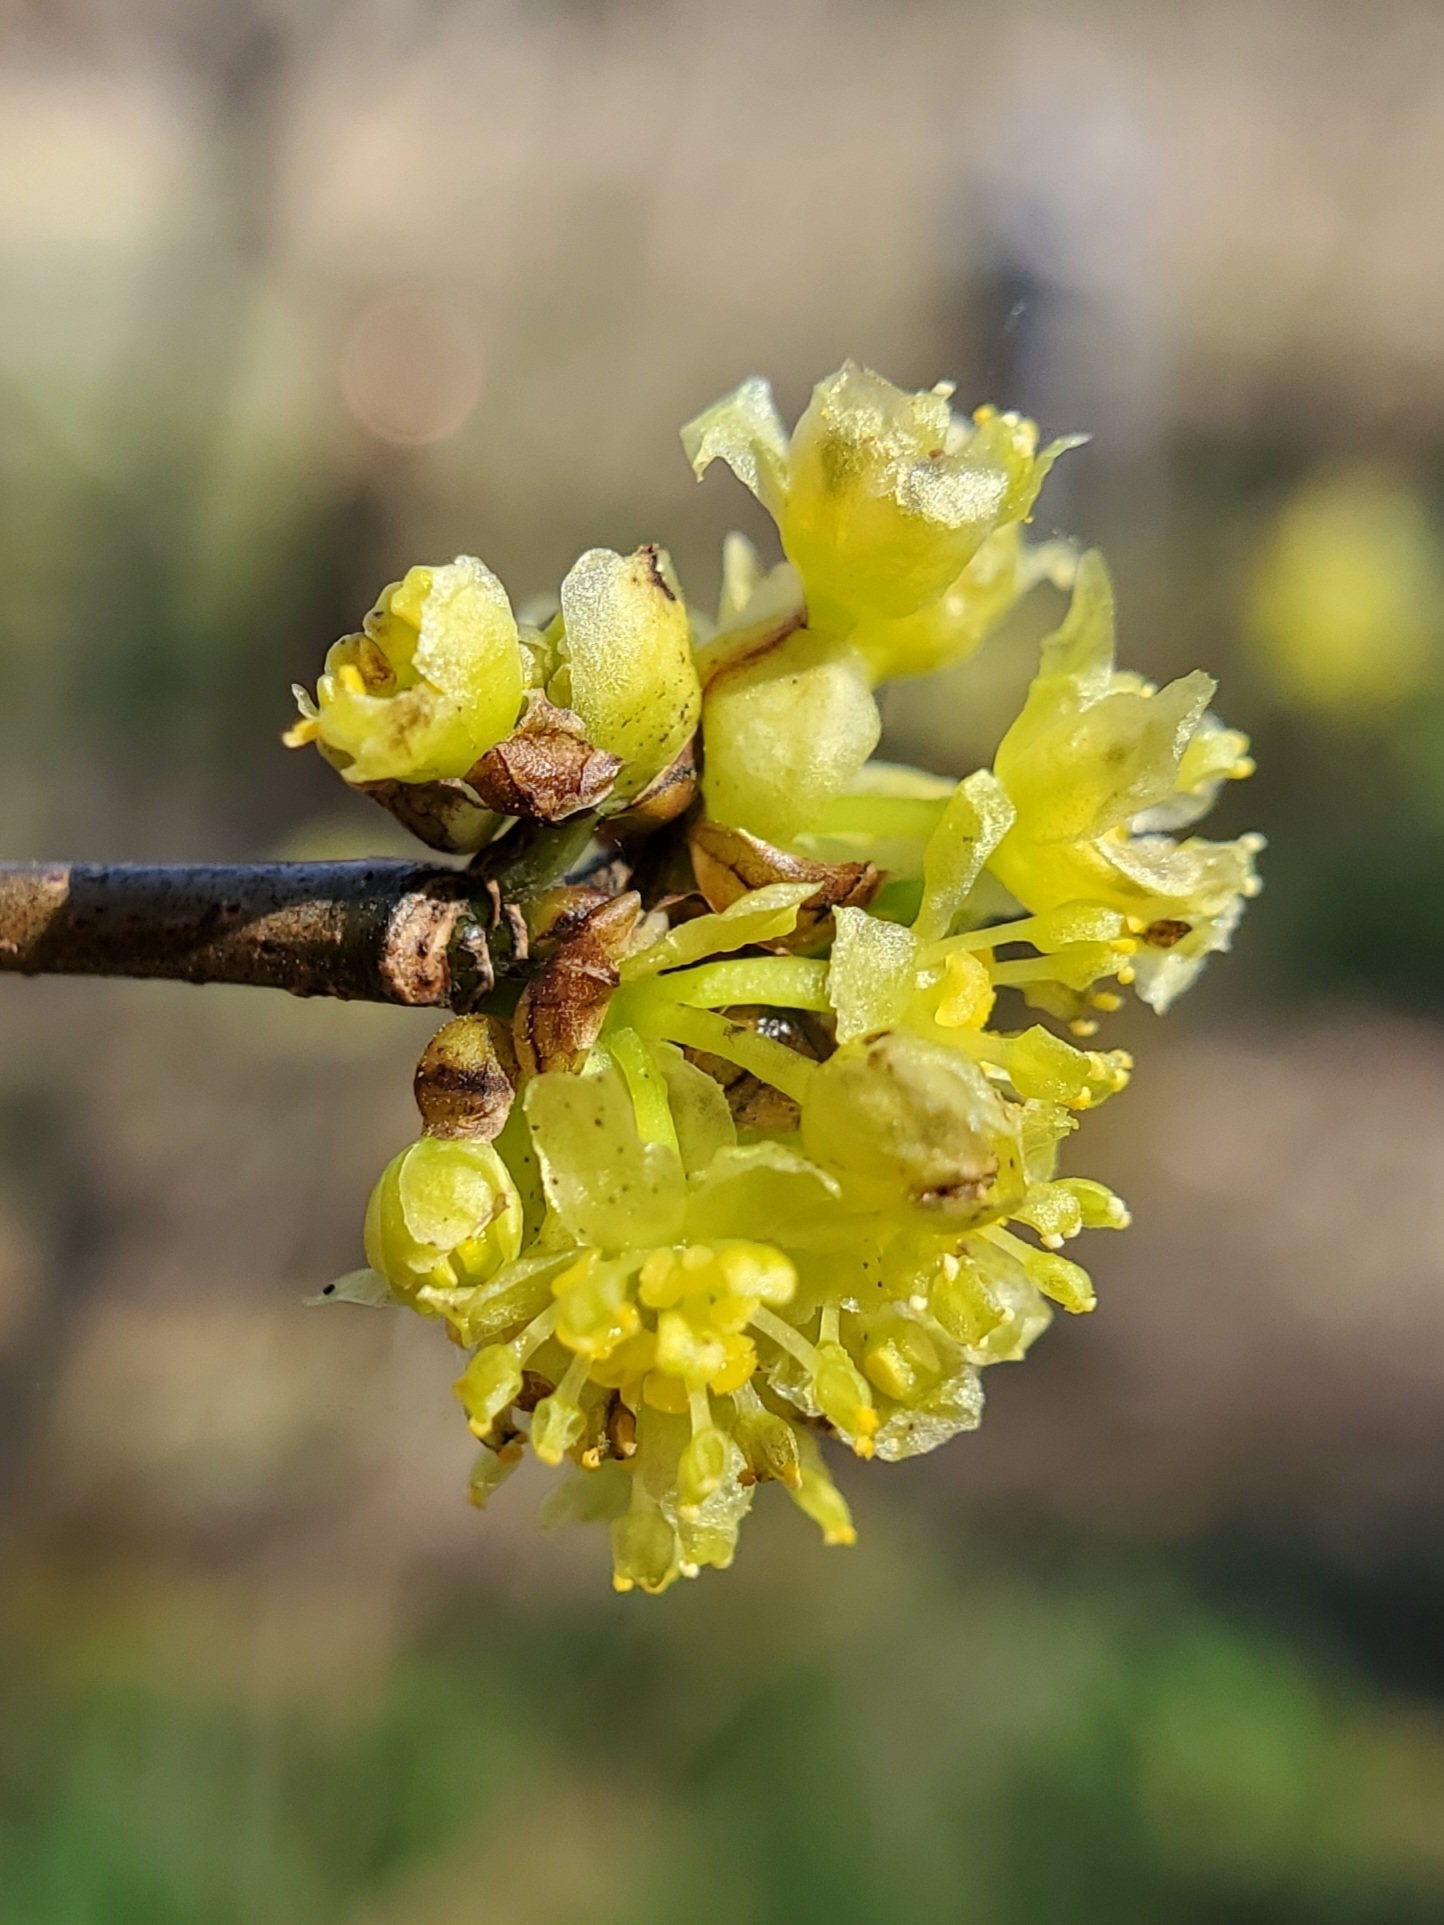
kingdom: Plantae
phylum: Tracheophyta
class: Magnoliopsida
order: Laurales
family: Lauraceae
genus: Lindera
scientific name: Lindera benzoin
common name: Spicebush
